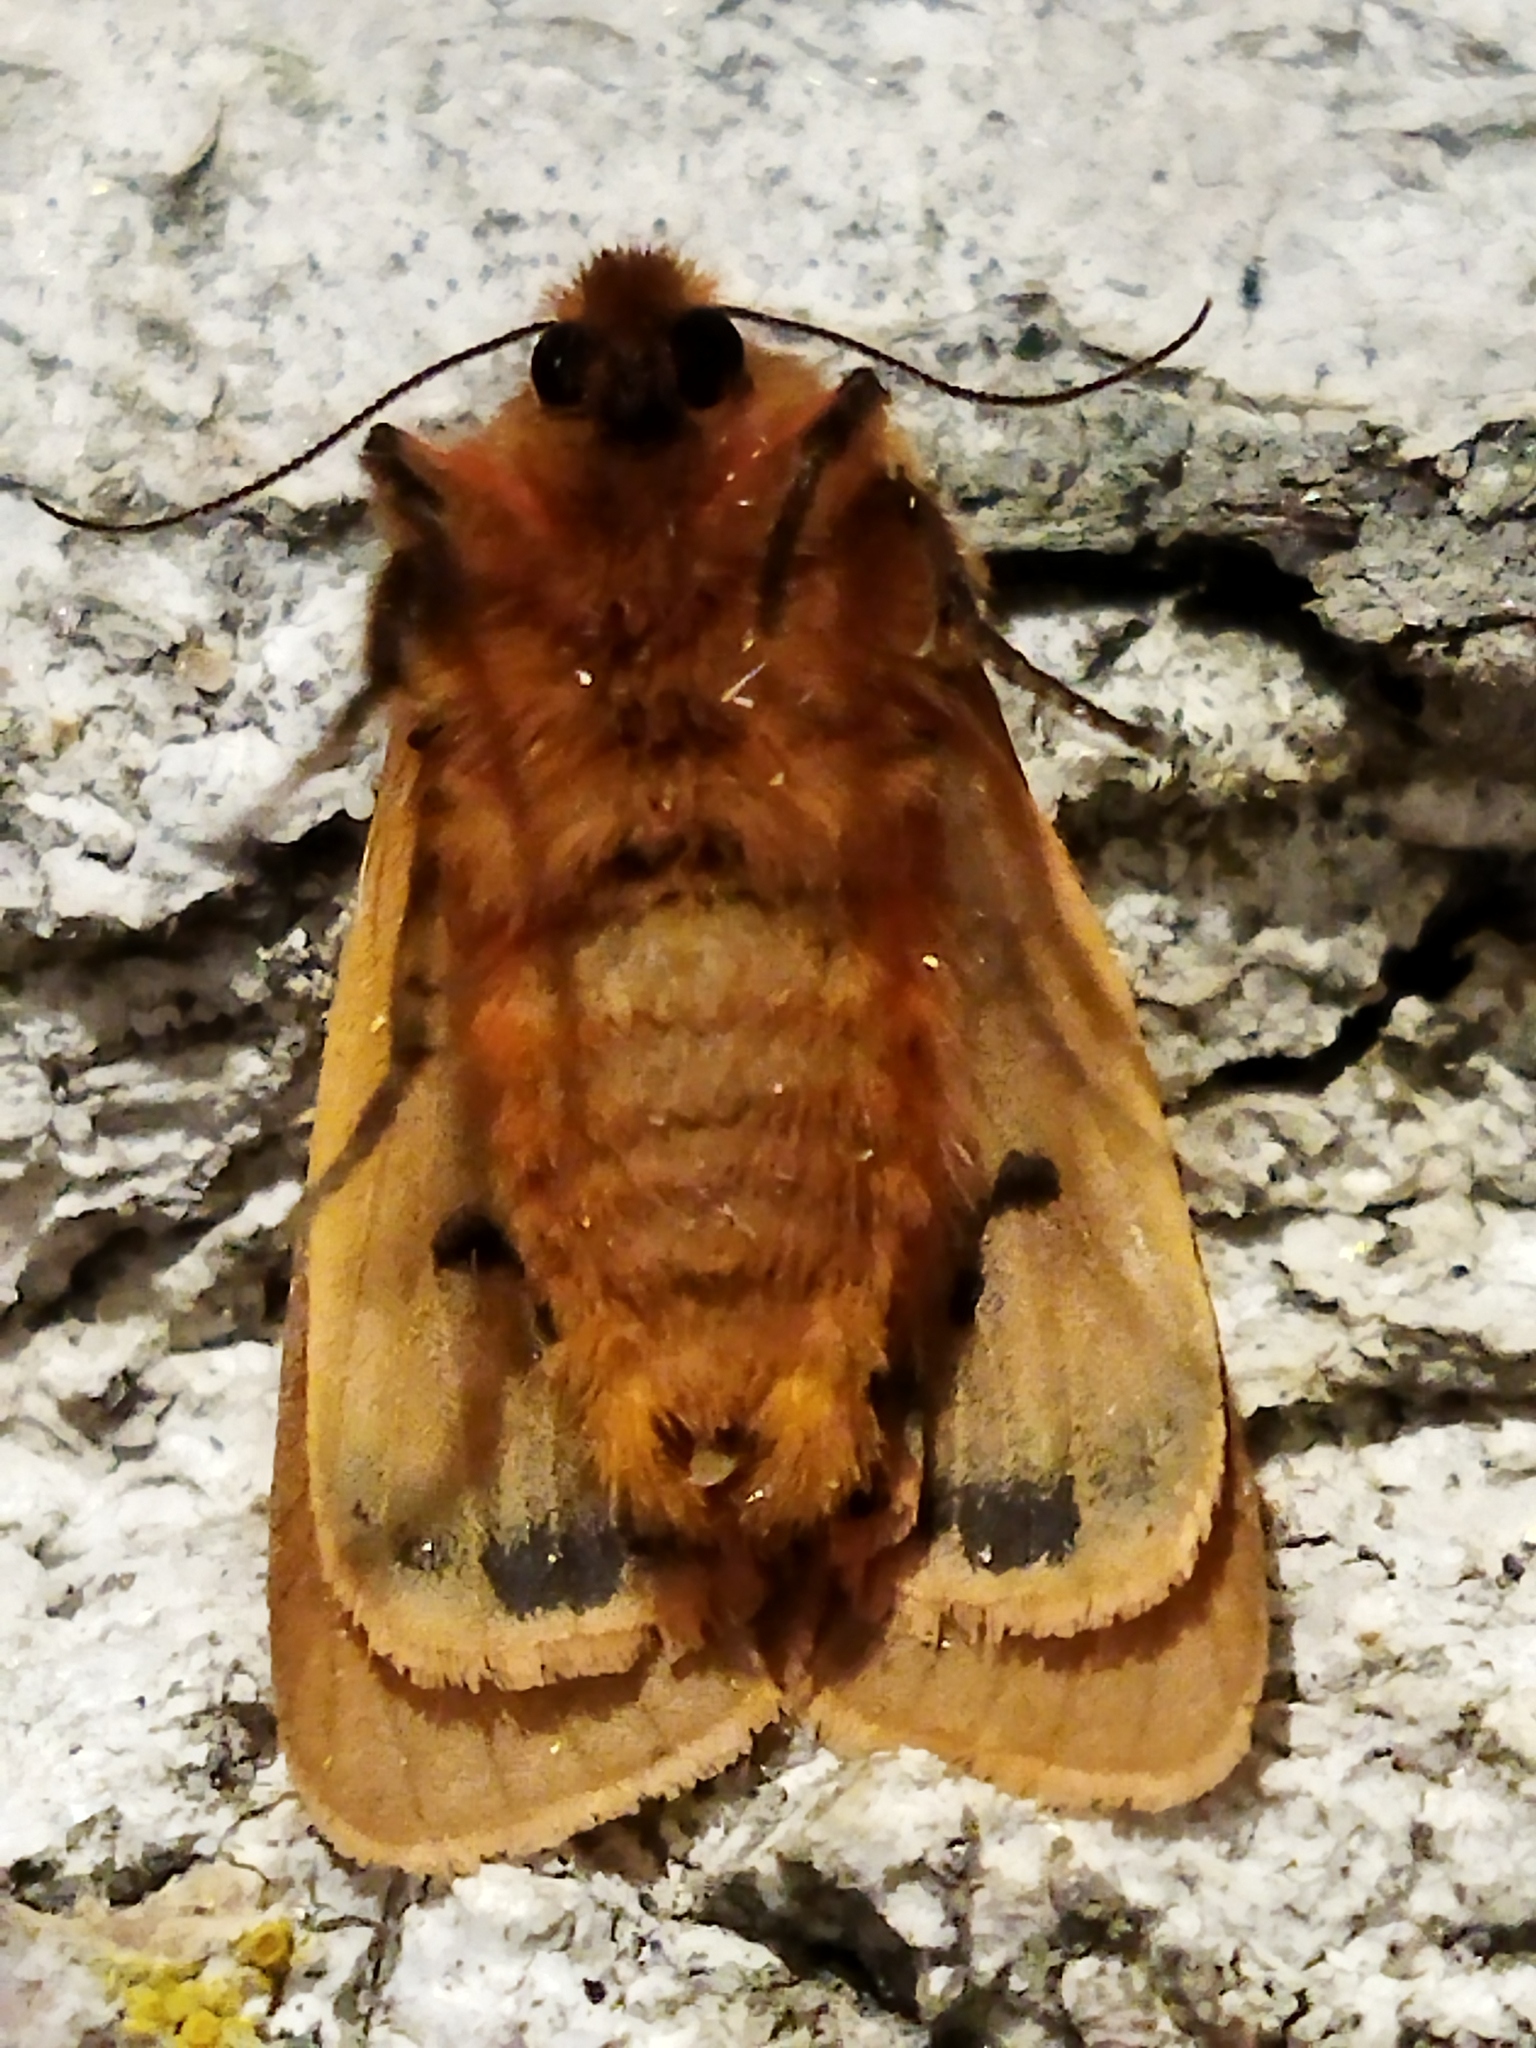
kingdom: Animalia
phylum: Arthropoda
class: Insecta
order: Lepidoptera
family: Erebidae
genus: Phragmatobia
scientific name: Phragmatobia fuliginosa
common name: Ruby tiger
